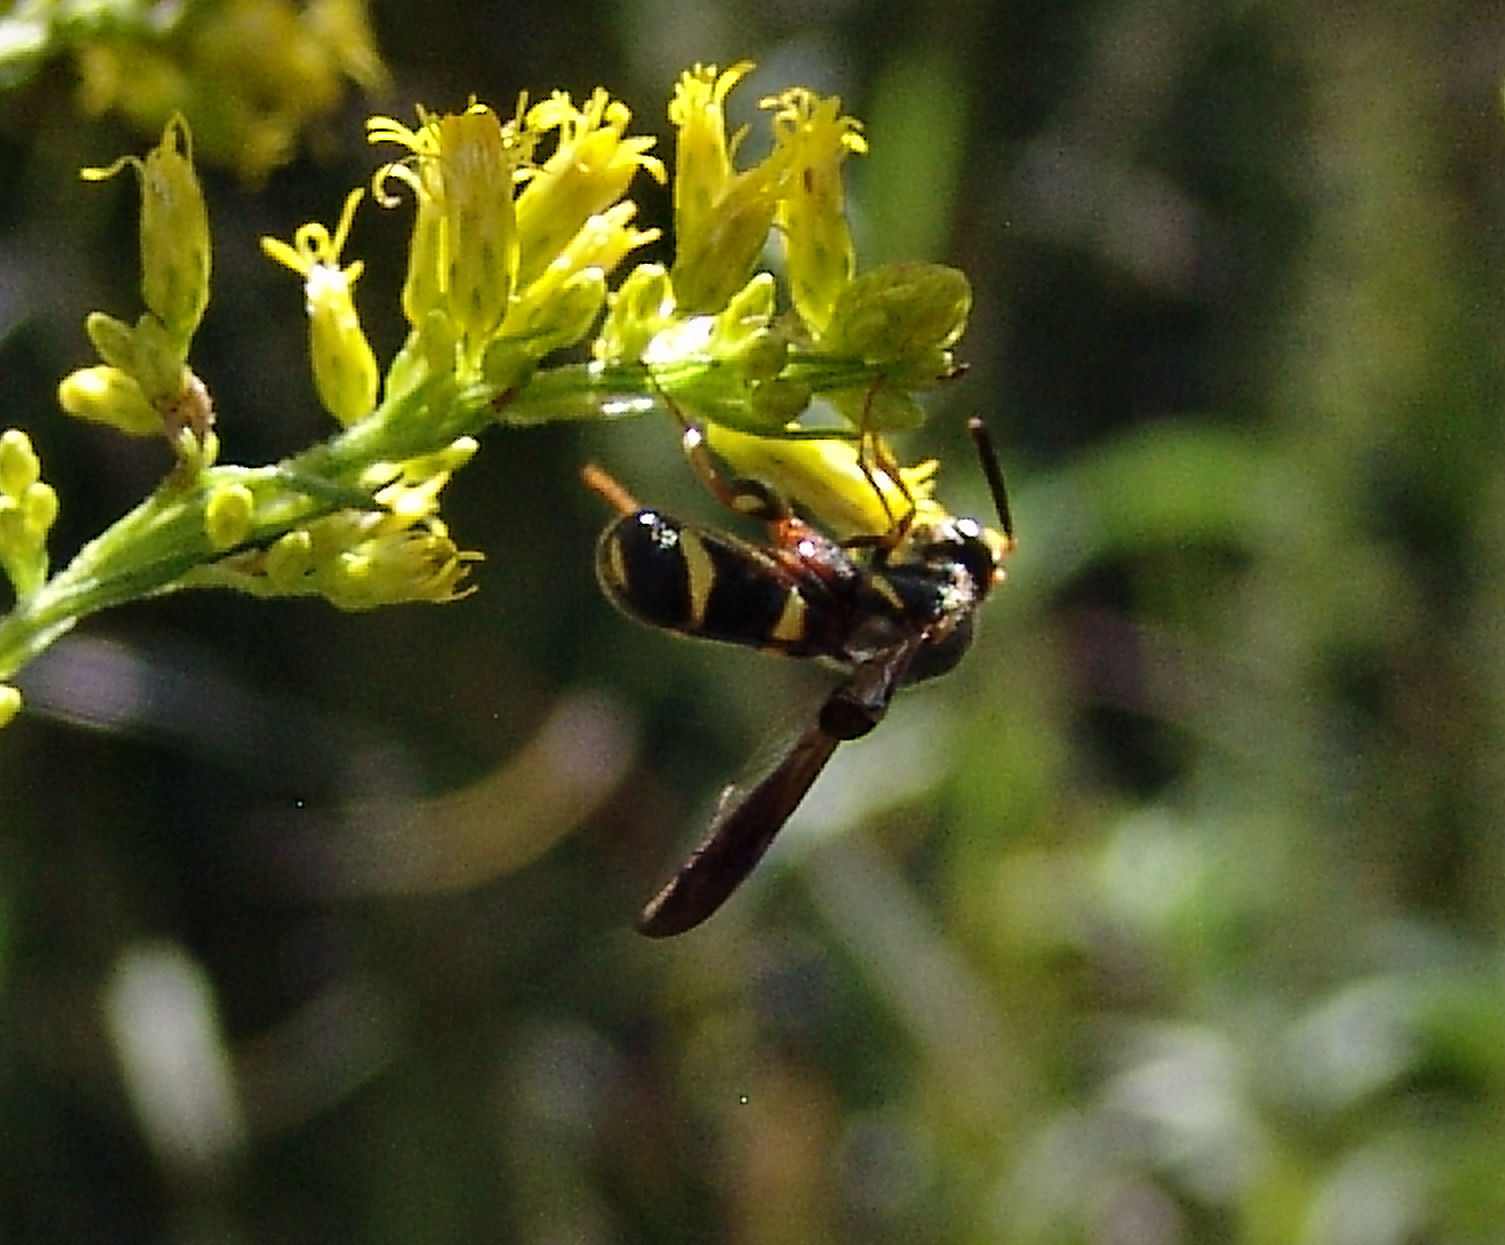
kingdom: Animalia
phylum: Arthropoda
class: Insecta
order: Hymenoptera
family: Leucospidae
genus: Leucospis
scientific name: Leucospis affinis
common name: Wasp
